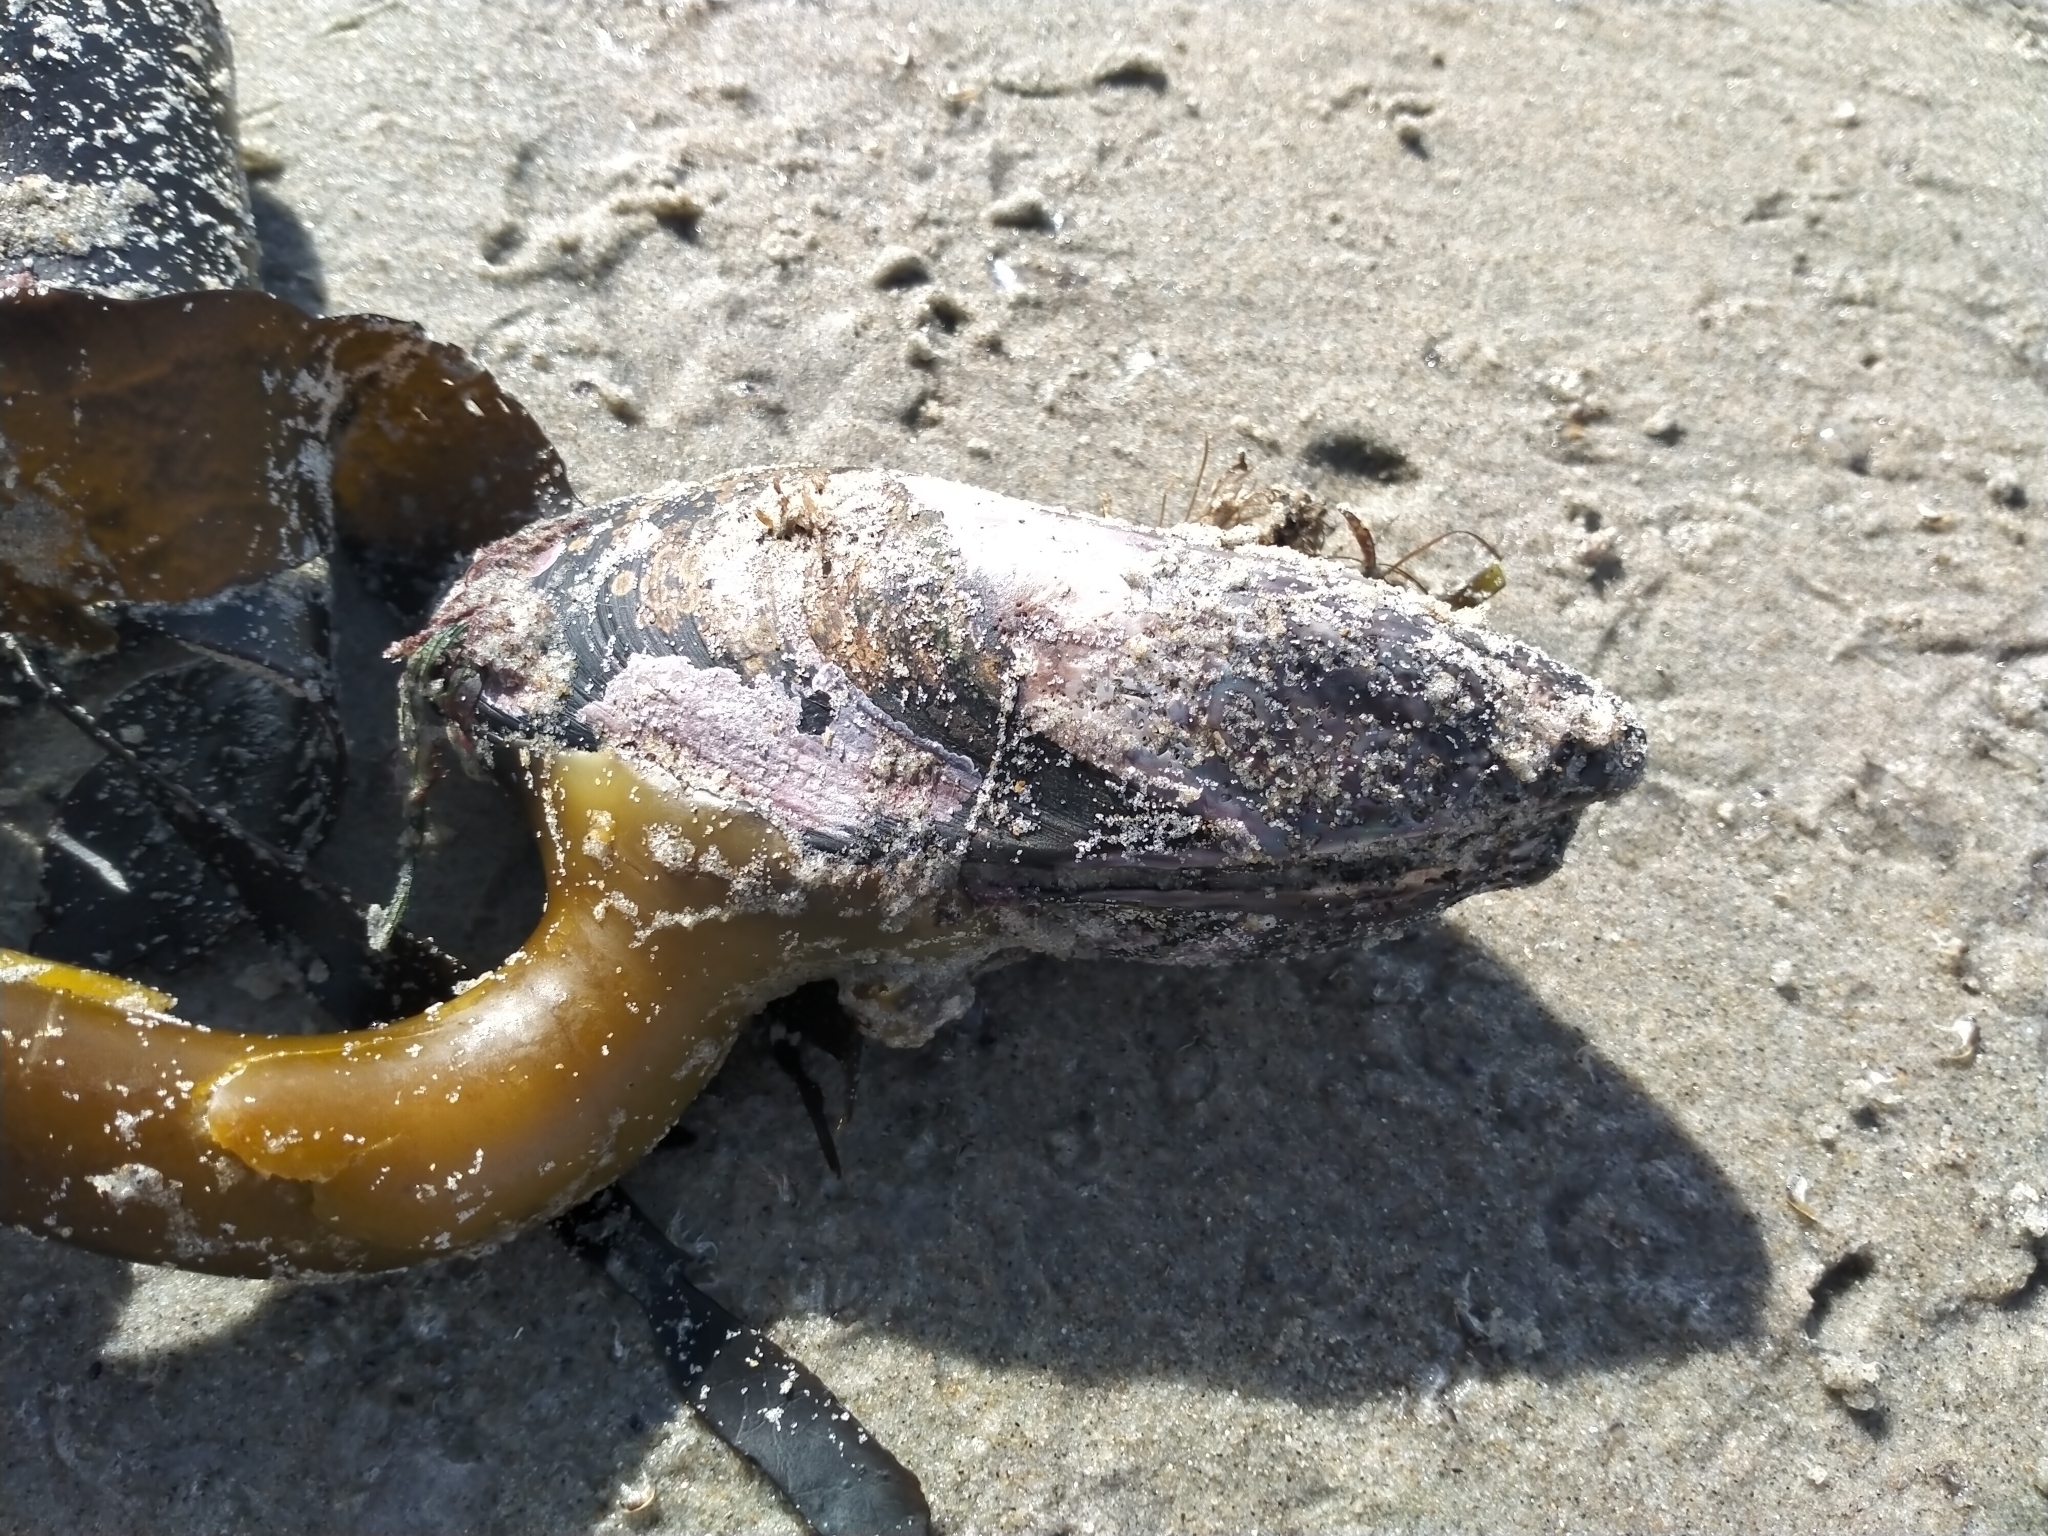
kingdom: Animalia
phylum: Mollusca
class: Bivalvia
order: Mytilida
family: Mytilidae
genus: Perna
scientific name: Perna canaliculus
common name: New zealand greenshelltm
